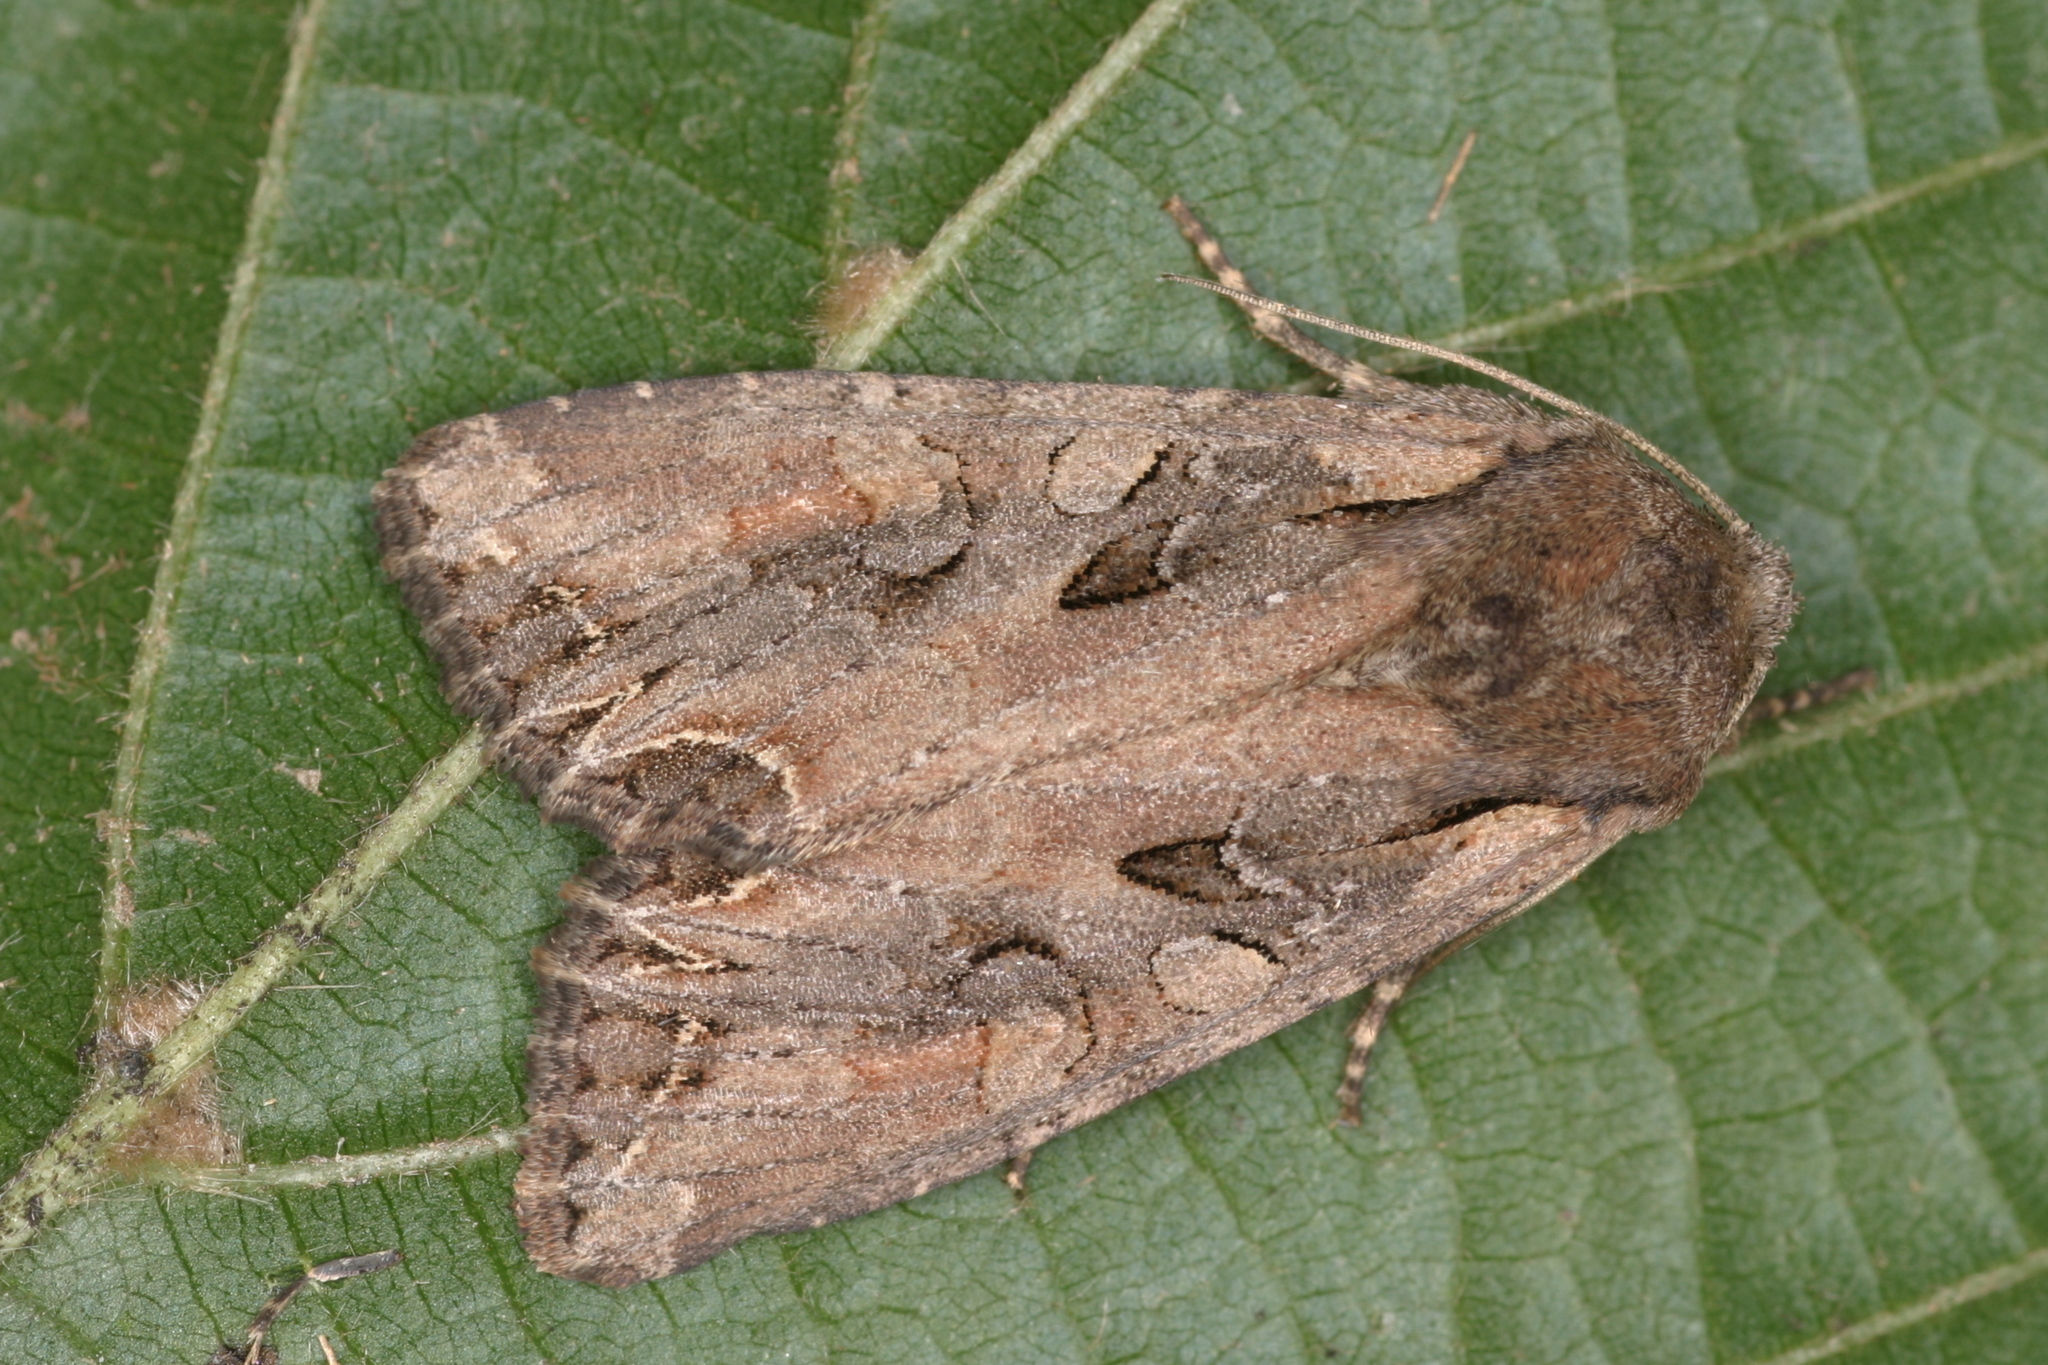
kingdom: Animalia
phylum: Arthropoda
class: Insecta
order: Lepidoptera
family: Noctuidae
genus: Lacanobia
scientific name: Lacanobia suasa
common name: Dog's tooth
